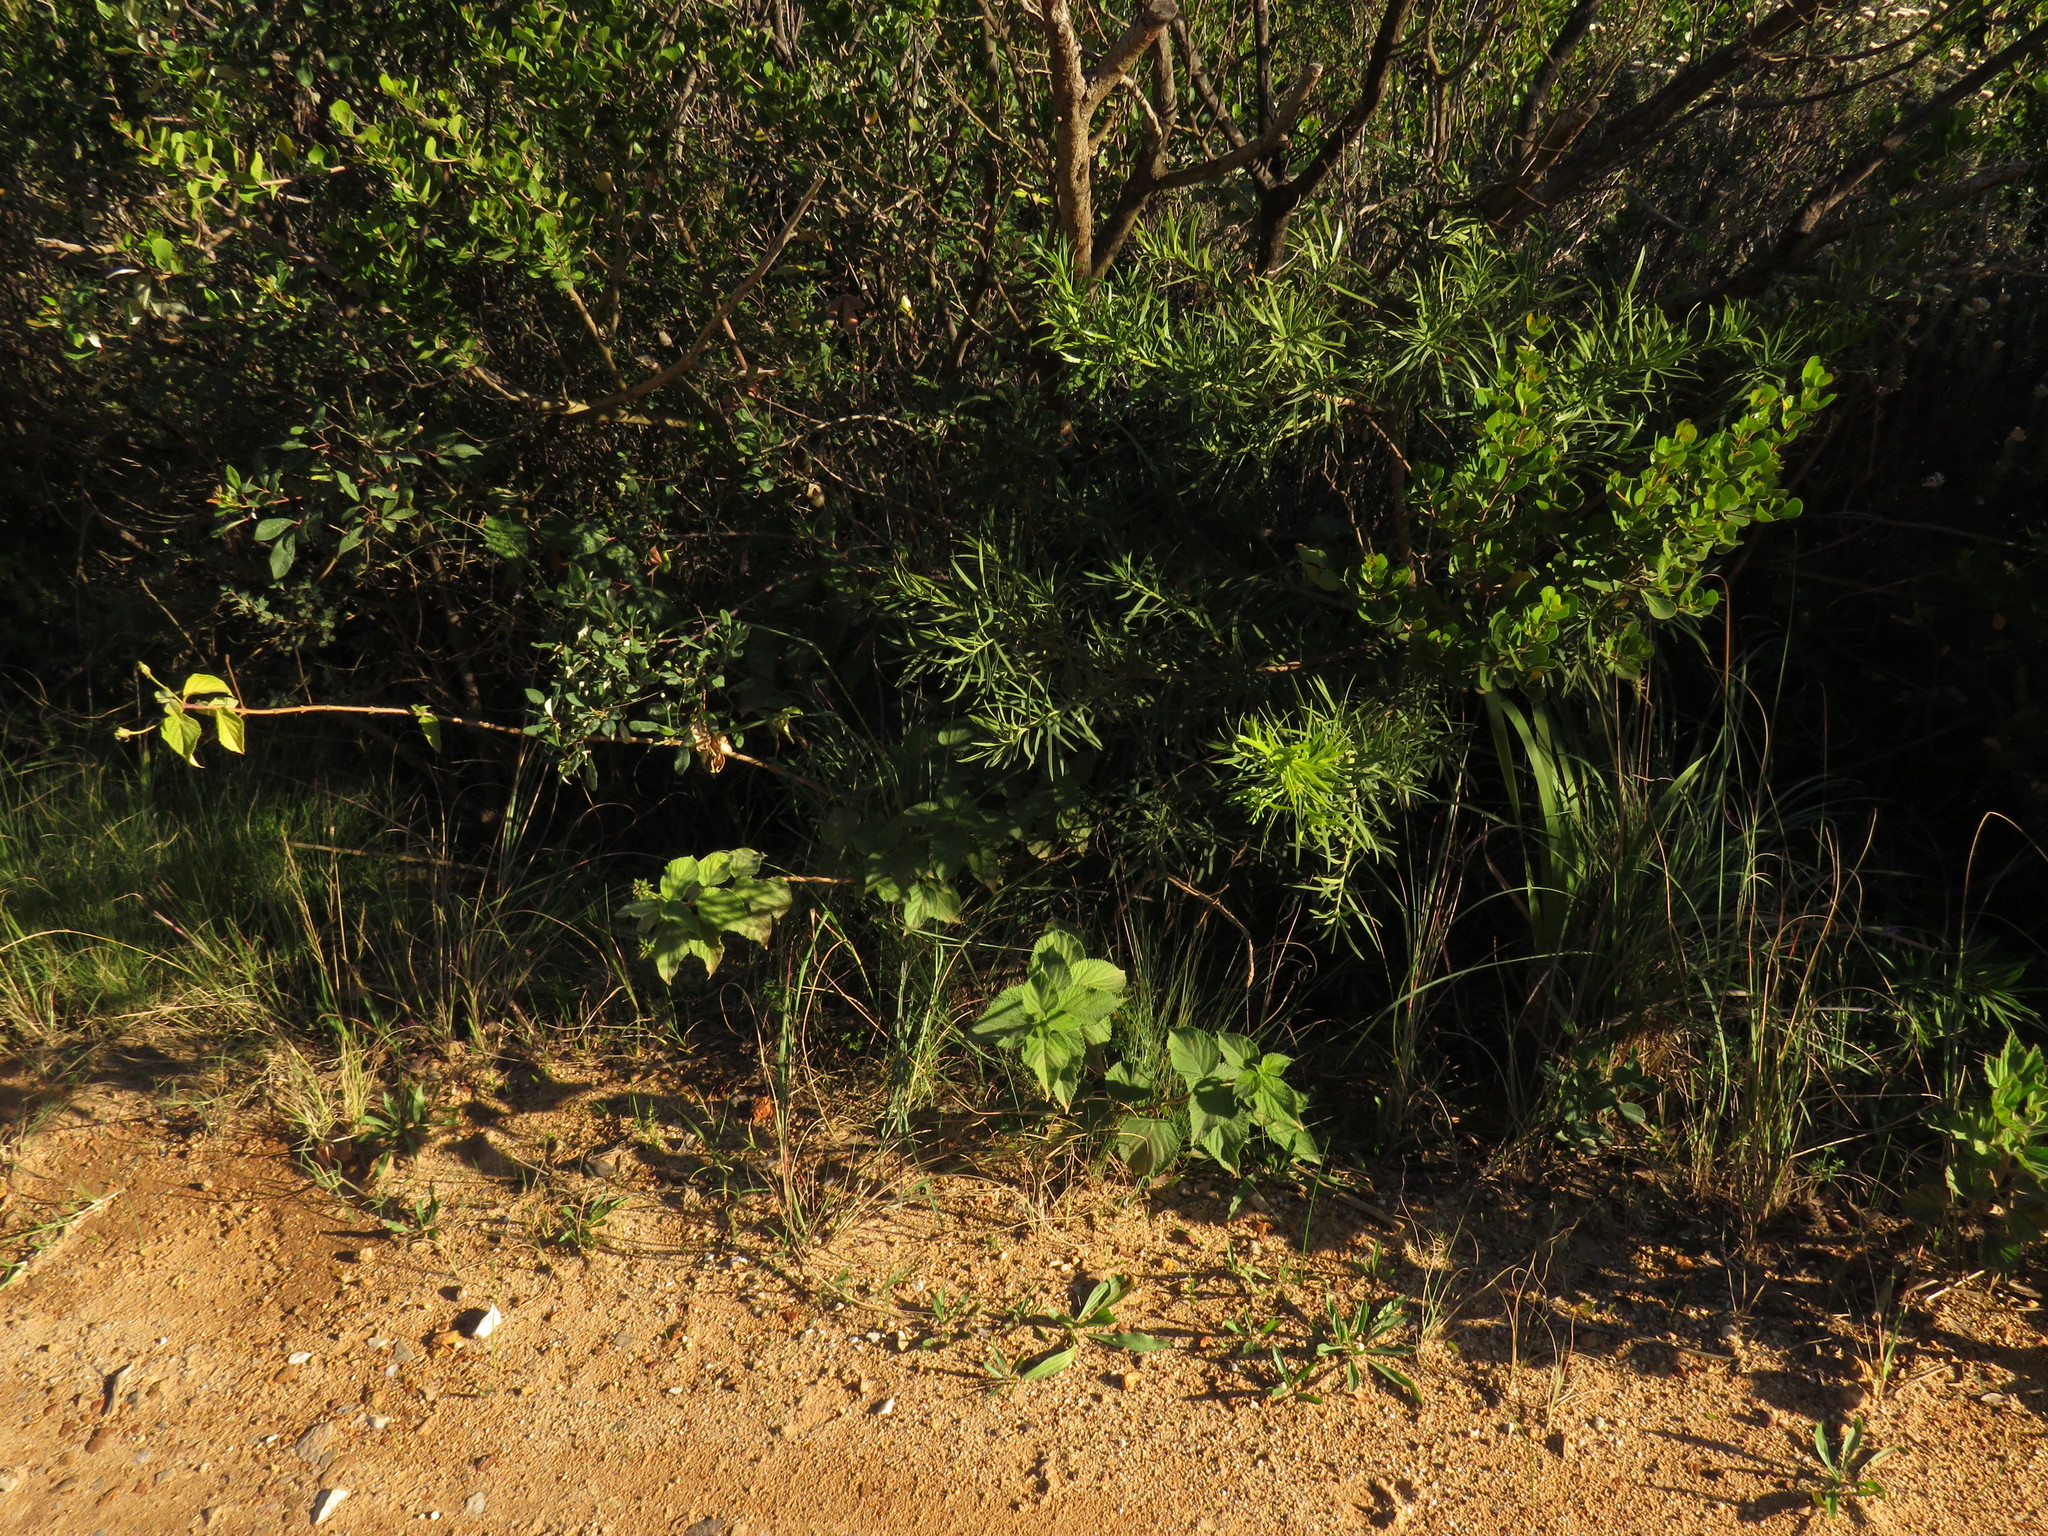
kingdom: Plantae
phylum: Tracheophyta
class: Magnoliopsida
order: Lamiales
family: Verbenaceae
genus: Lantana
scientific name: Lantana camara
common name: Lantana
